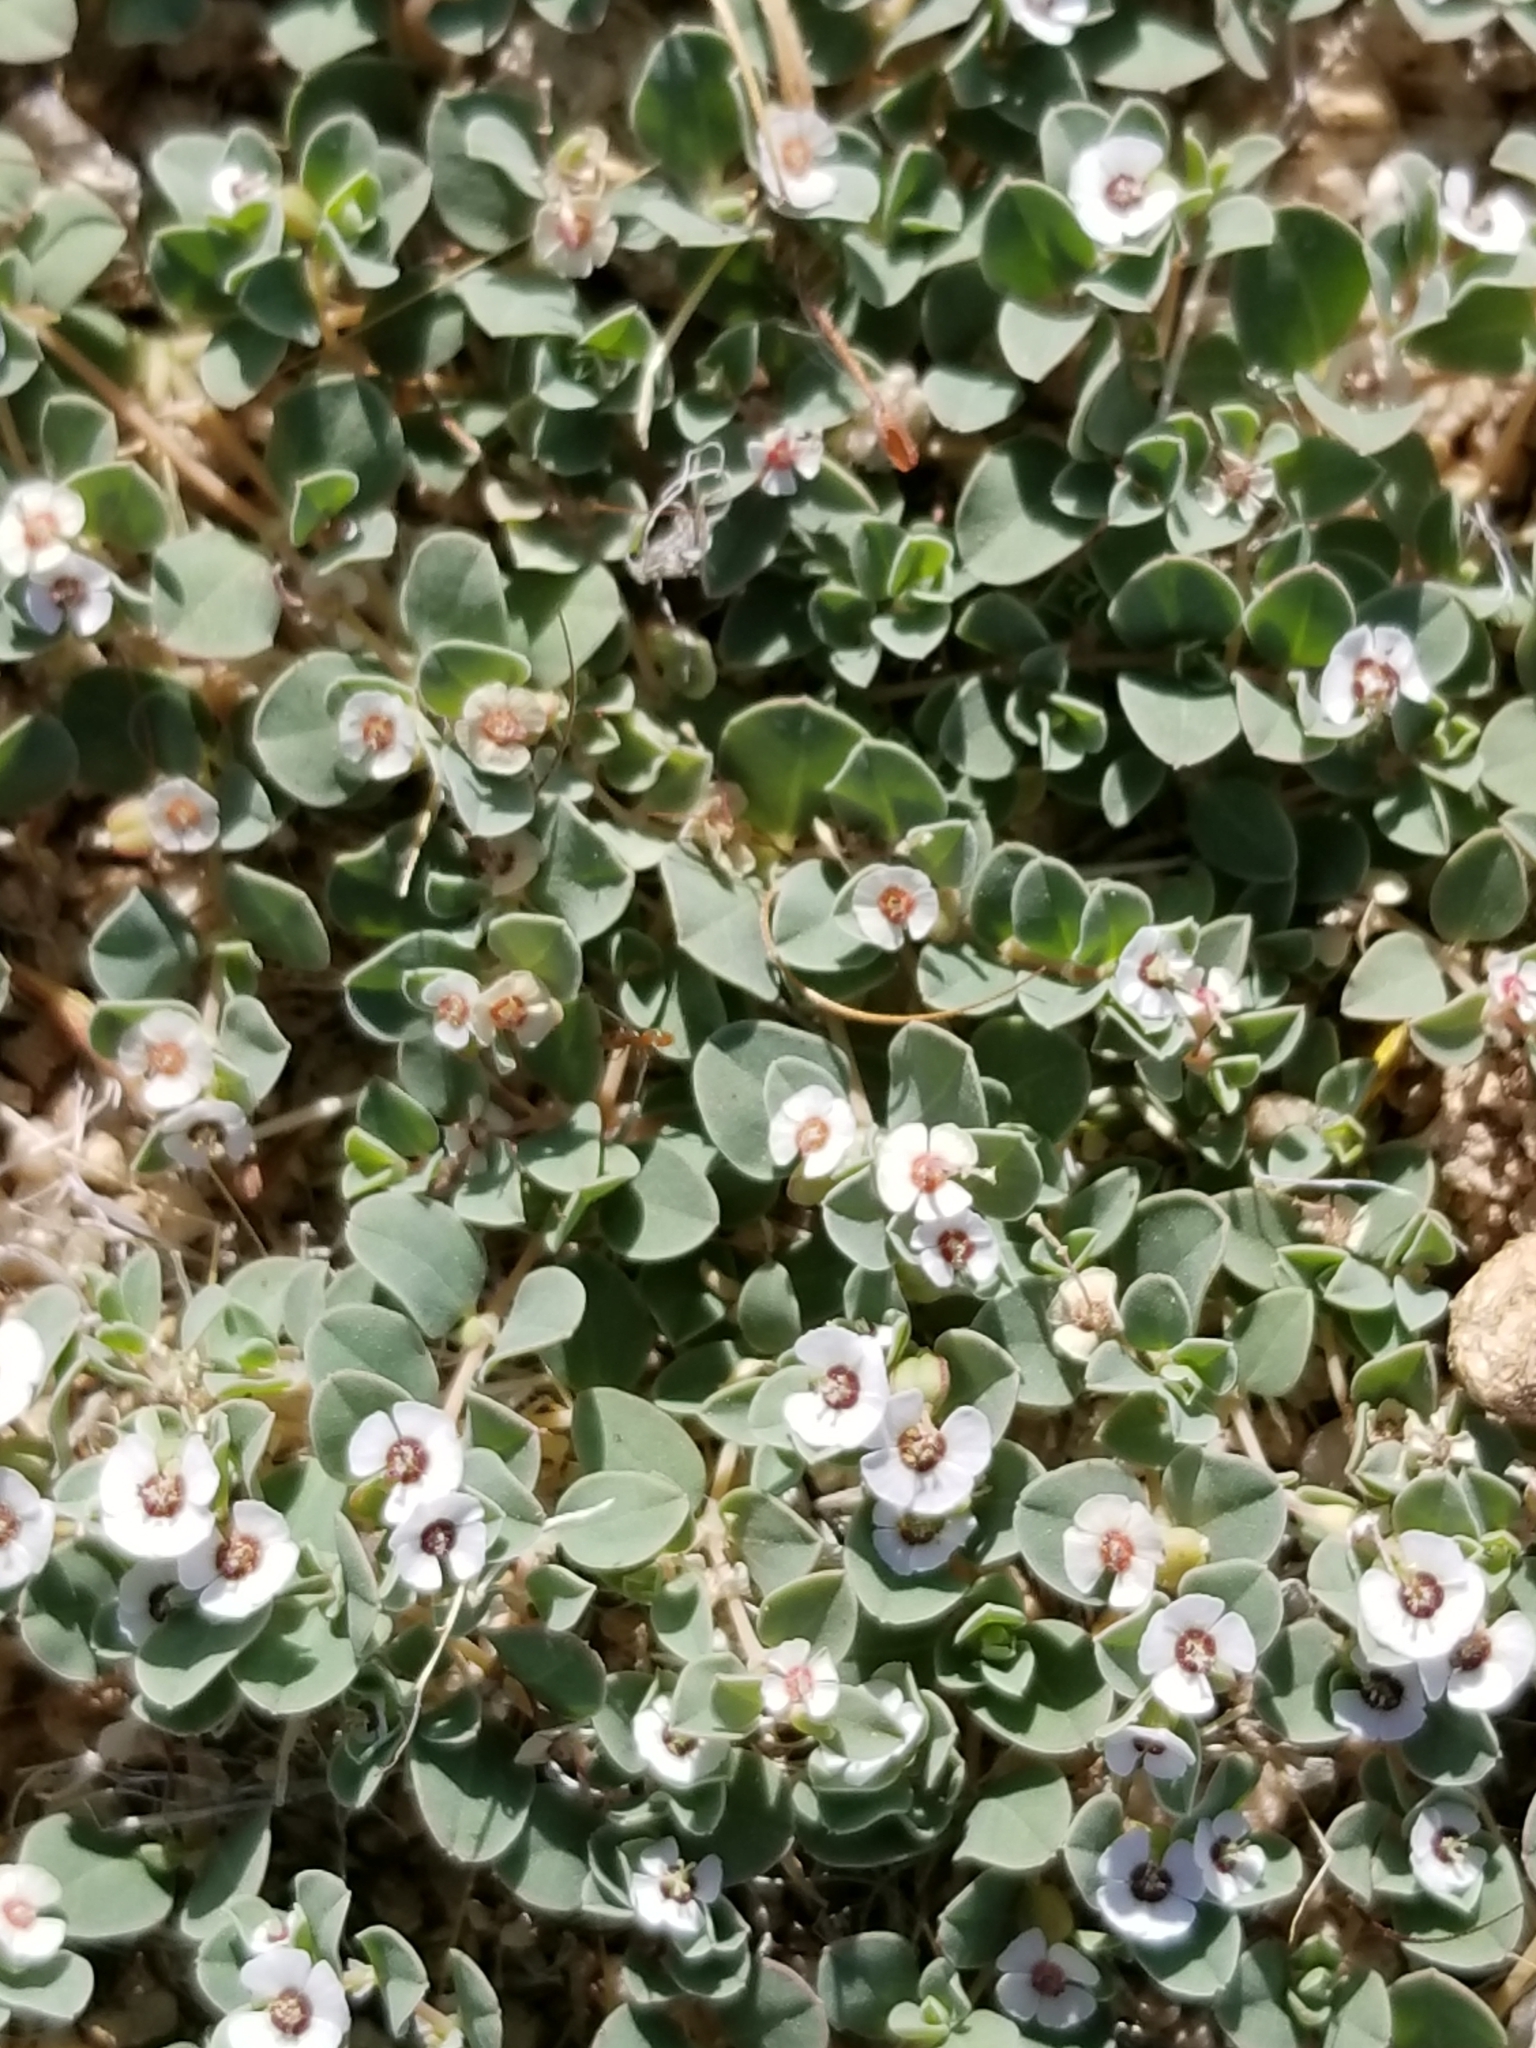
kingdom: Plantae
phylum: Tracheophyta
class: Magnoliopsida
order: Malpighiales
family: Euphorbiaceae
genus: Euphorbia
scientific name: Euphorbia albomarginata
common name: Whitemargin sandmat
